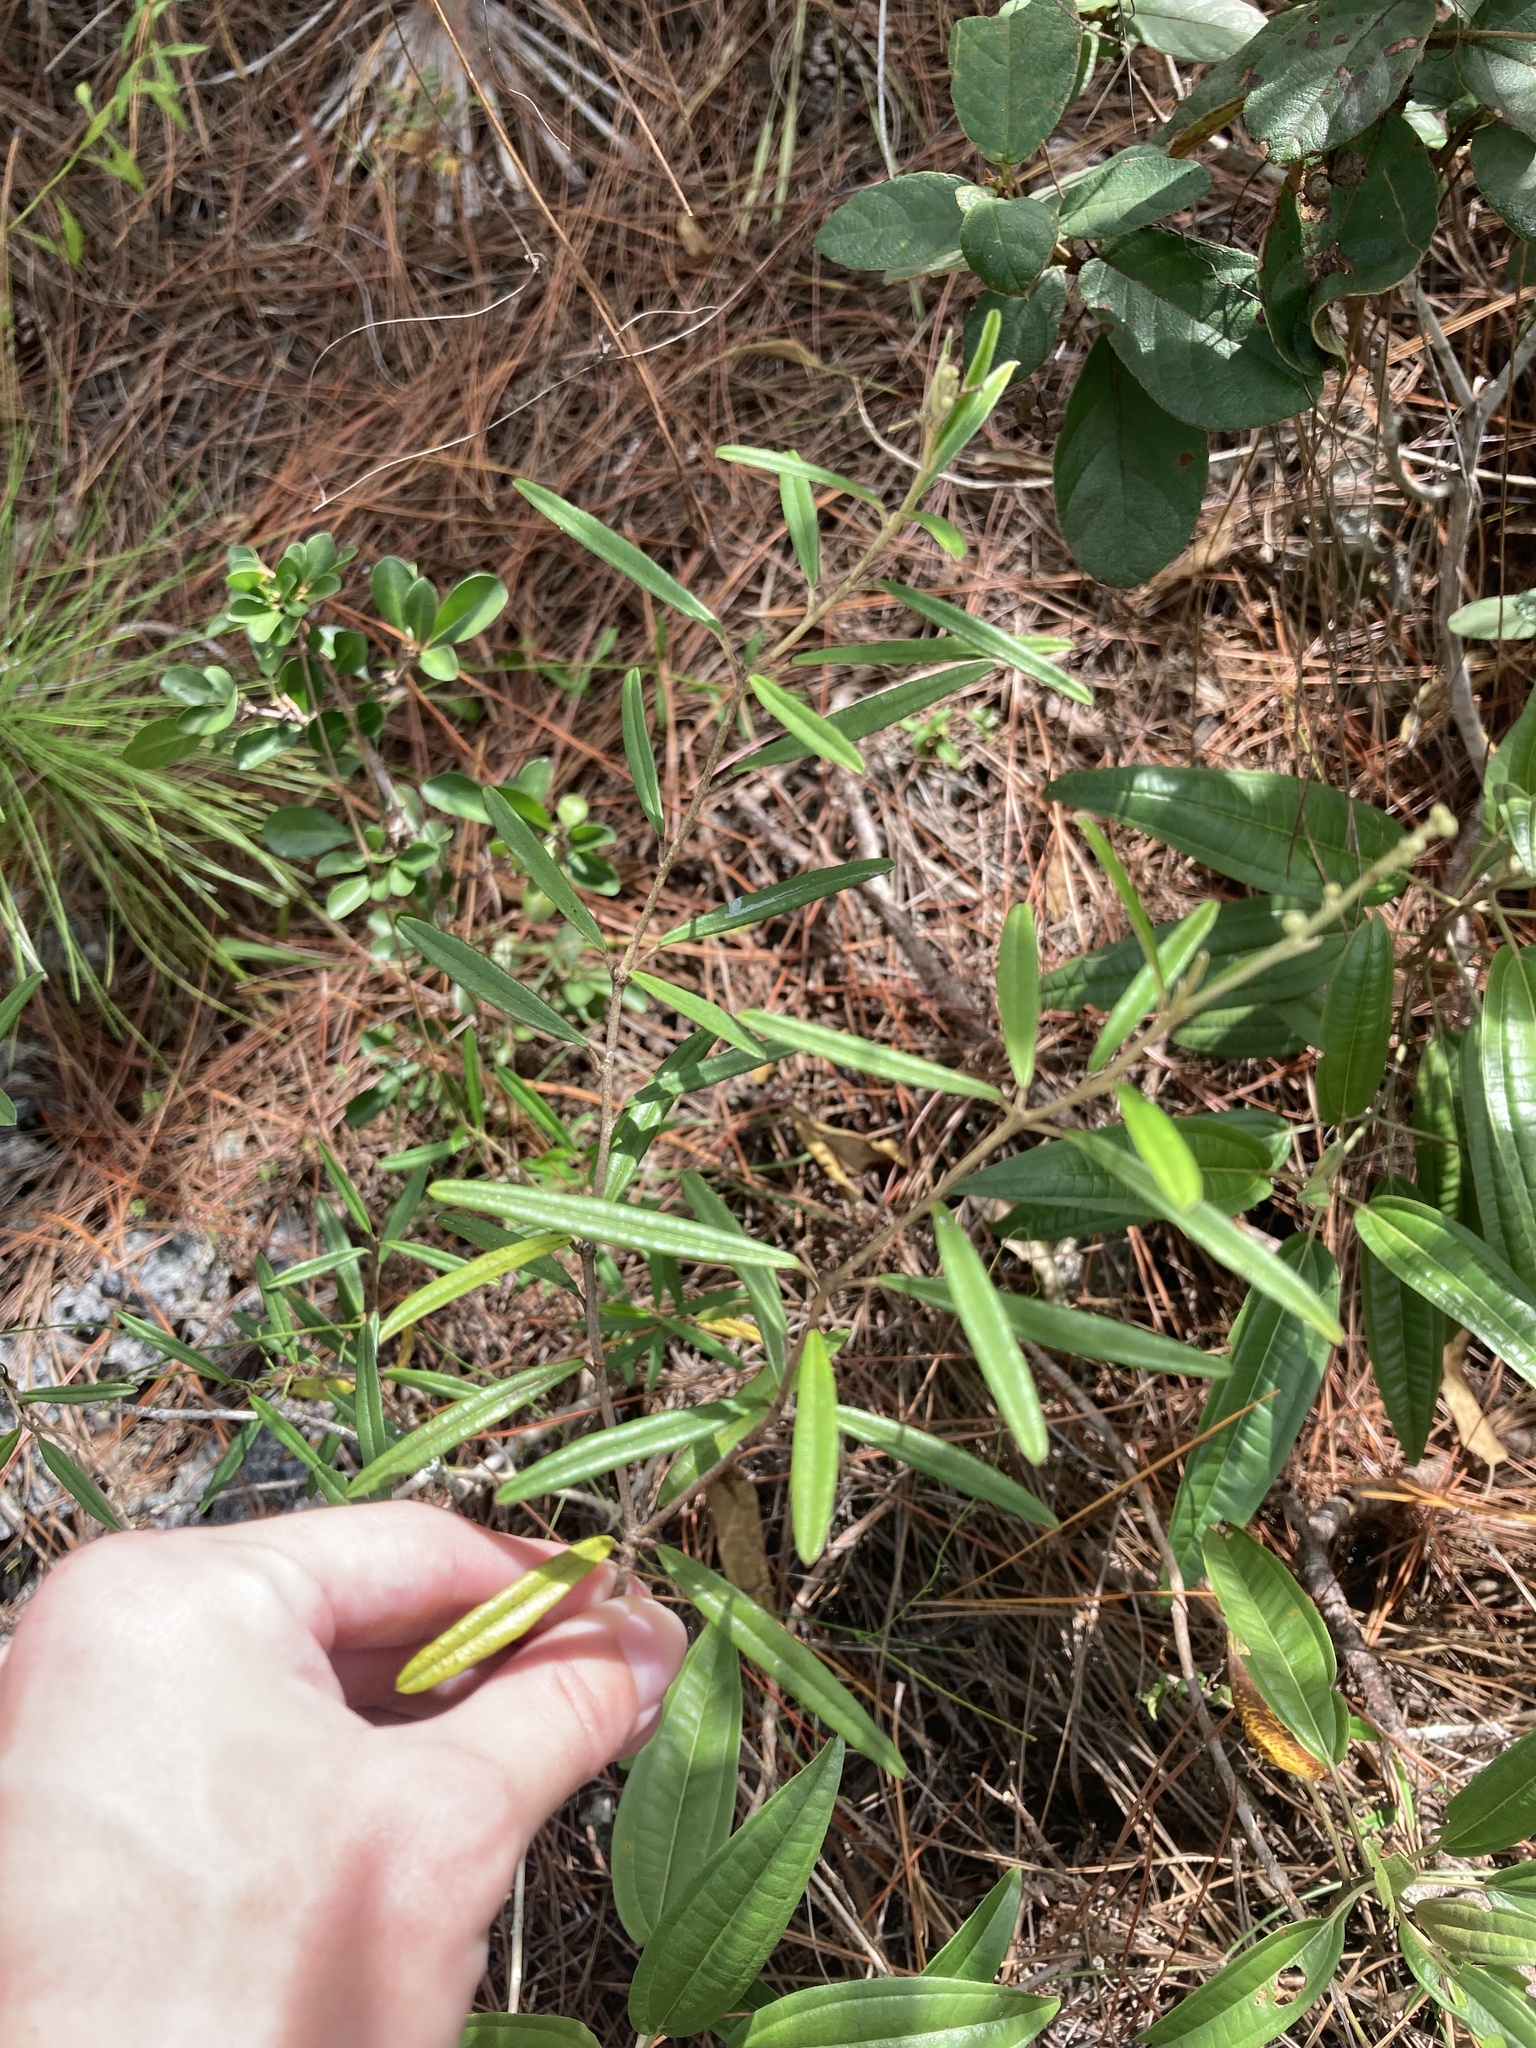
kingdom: Plantae
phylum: Tracheophyta
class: Magnoliopsida
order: Malpighiales
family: Euphorbiaceae
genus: Croton
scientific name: Croton linearis
